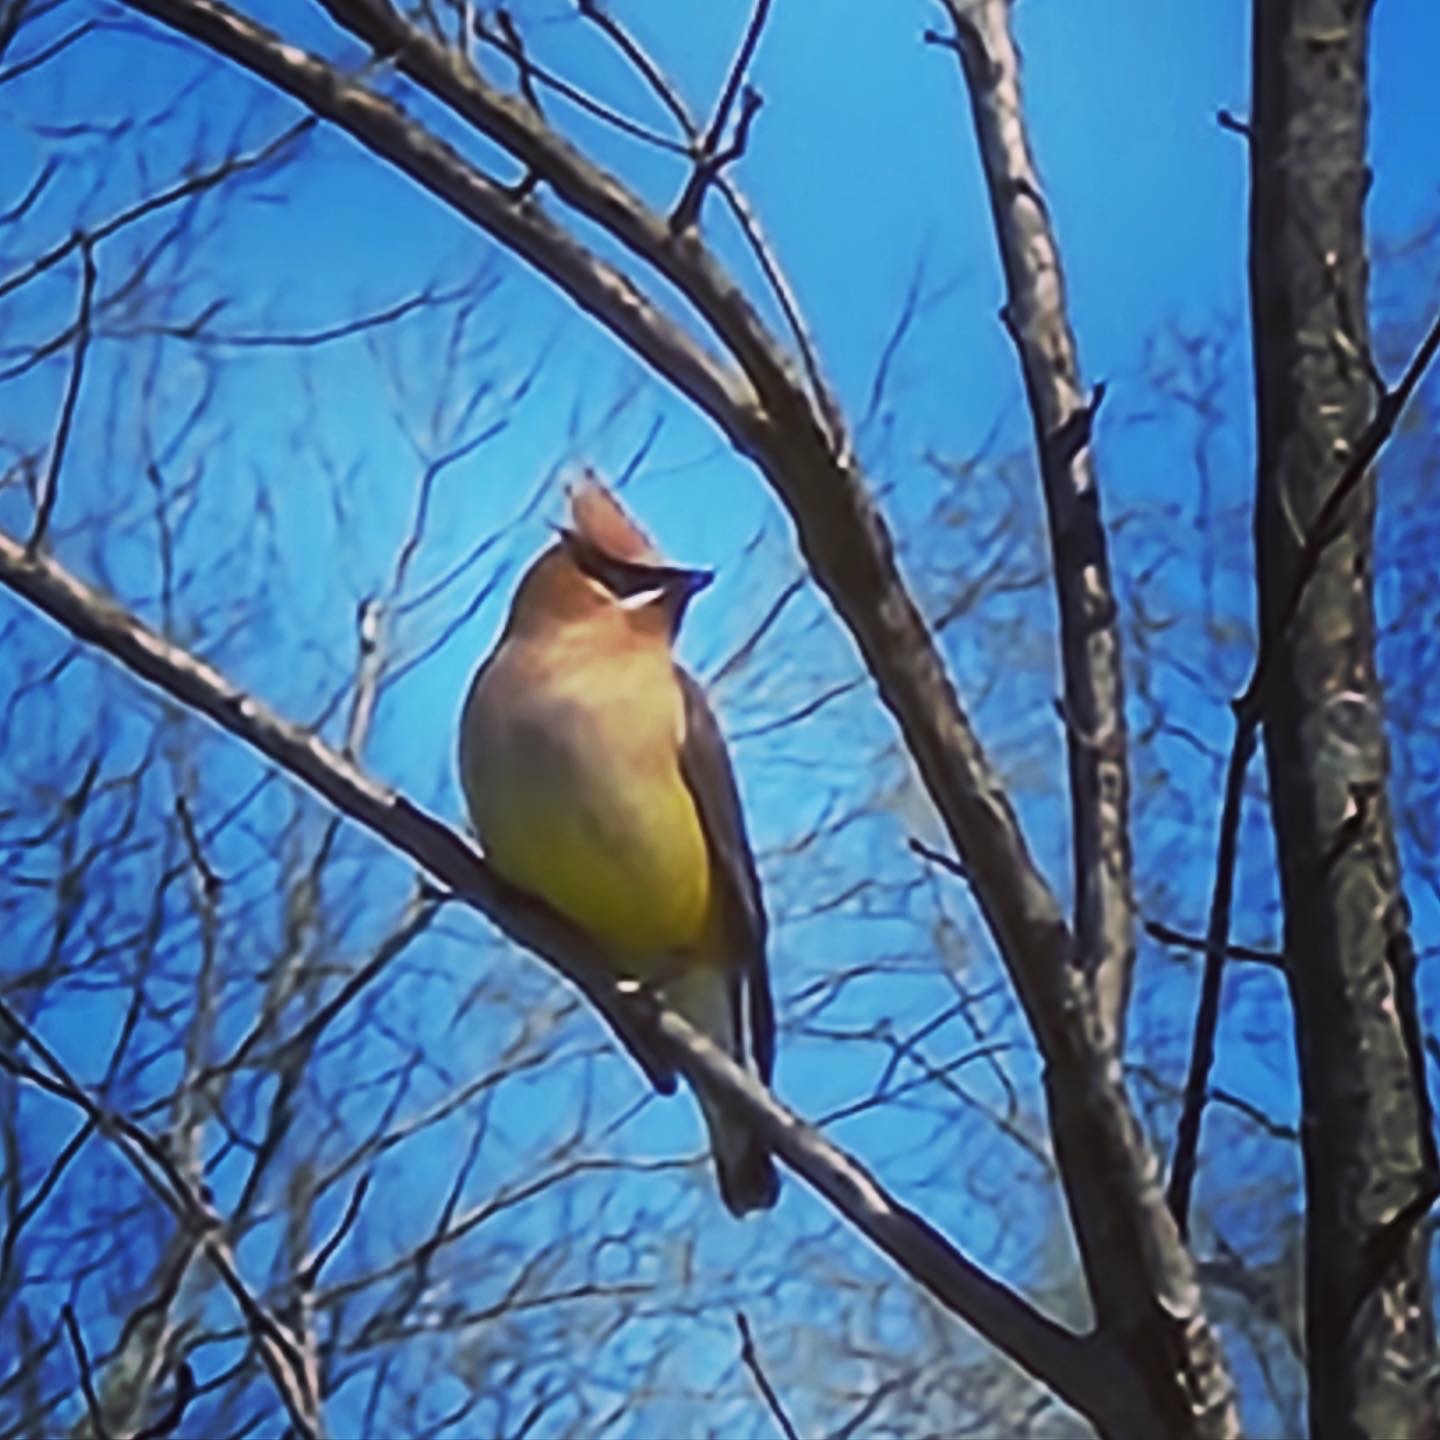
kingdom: Animalia
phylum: Chordata
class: Aves
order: Passeriformes
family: Bombycillidae
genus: Bombycilla
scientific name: Bombycilla cedrorum
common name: Cedar waxwing
